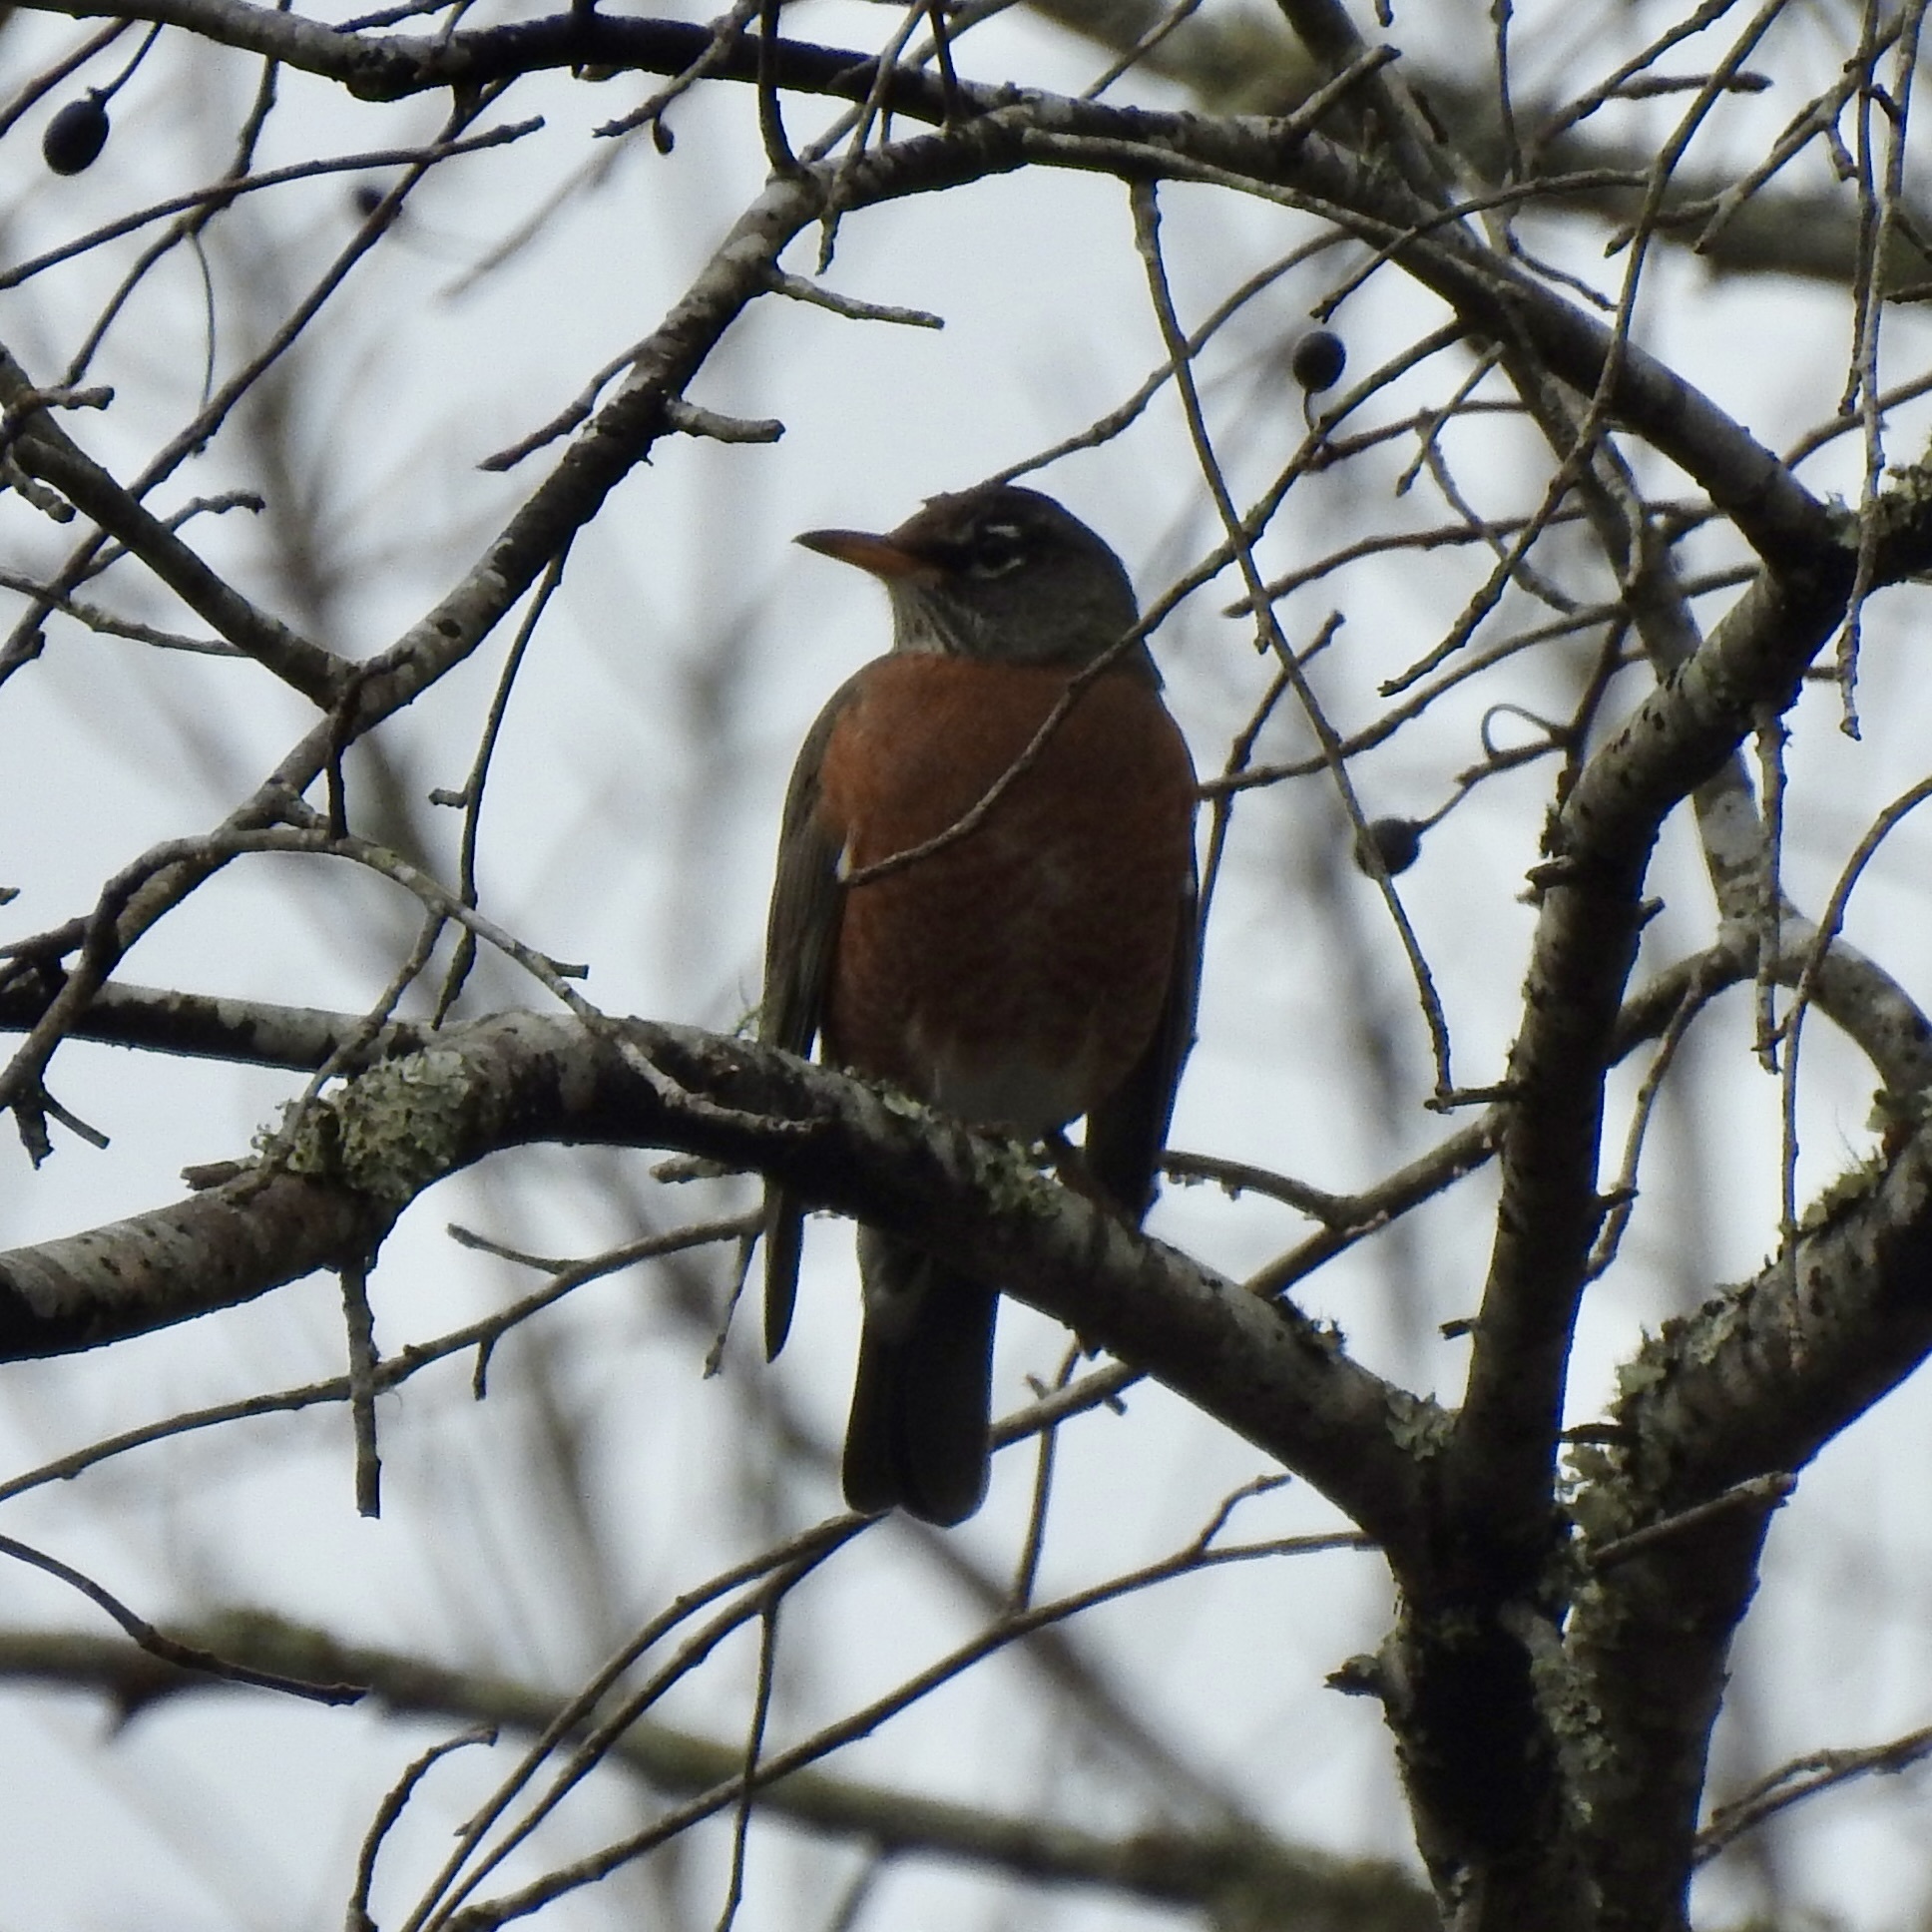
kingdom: Animalia
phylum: Chordata
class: Aves
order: Passeriformes
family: Turdidae
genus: Turdus
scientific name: Turdus migratorius
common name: American robin
